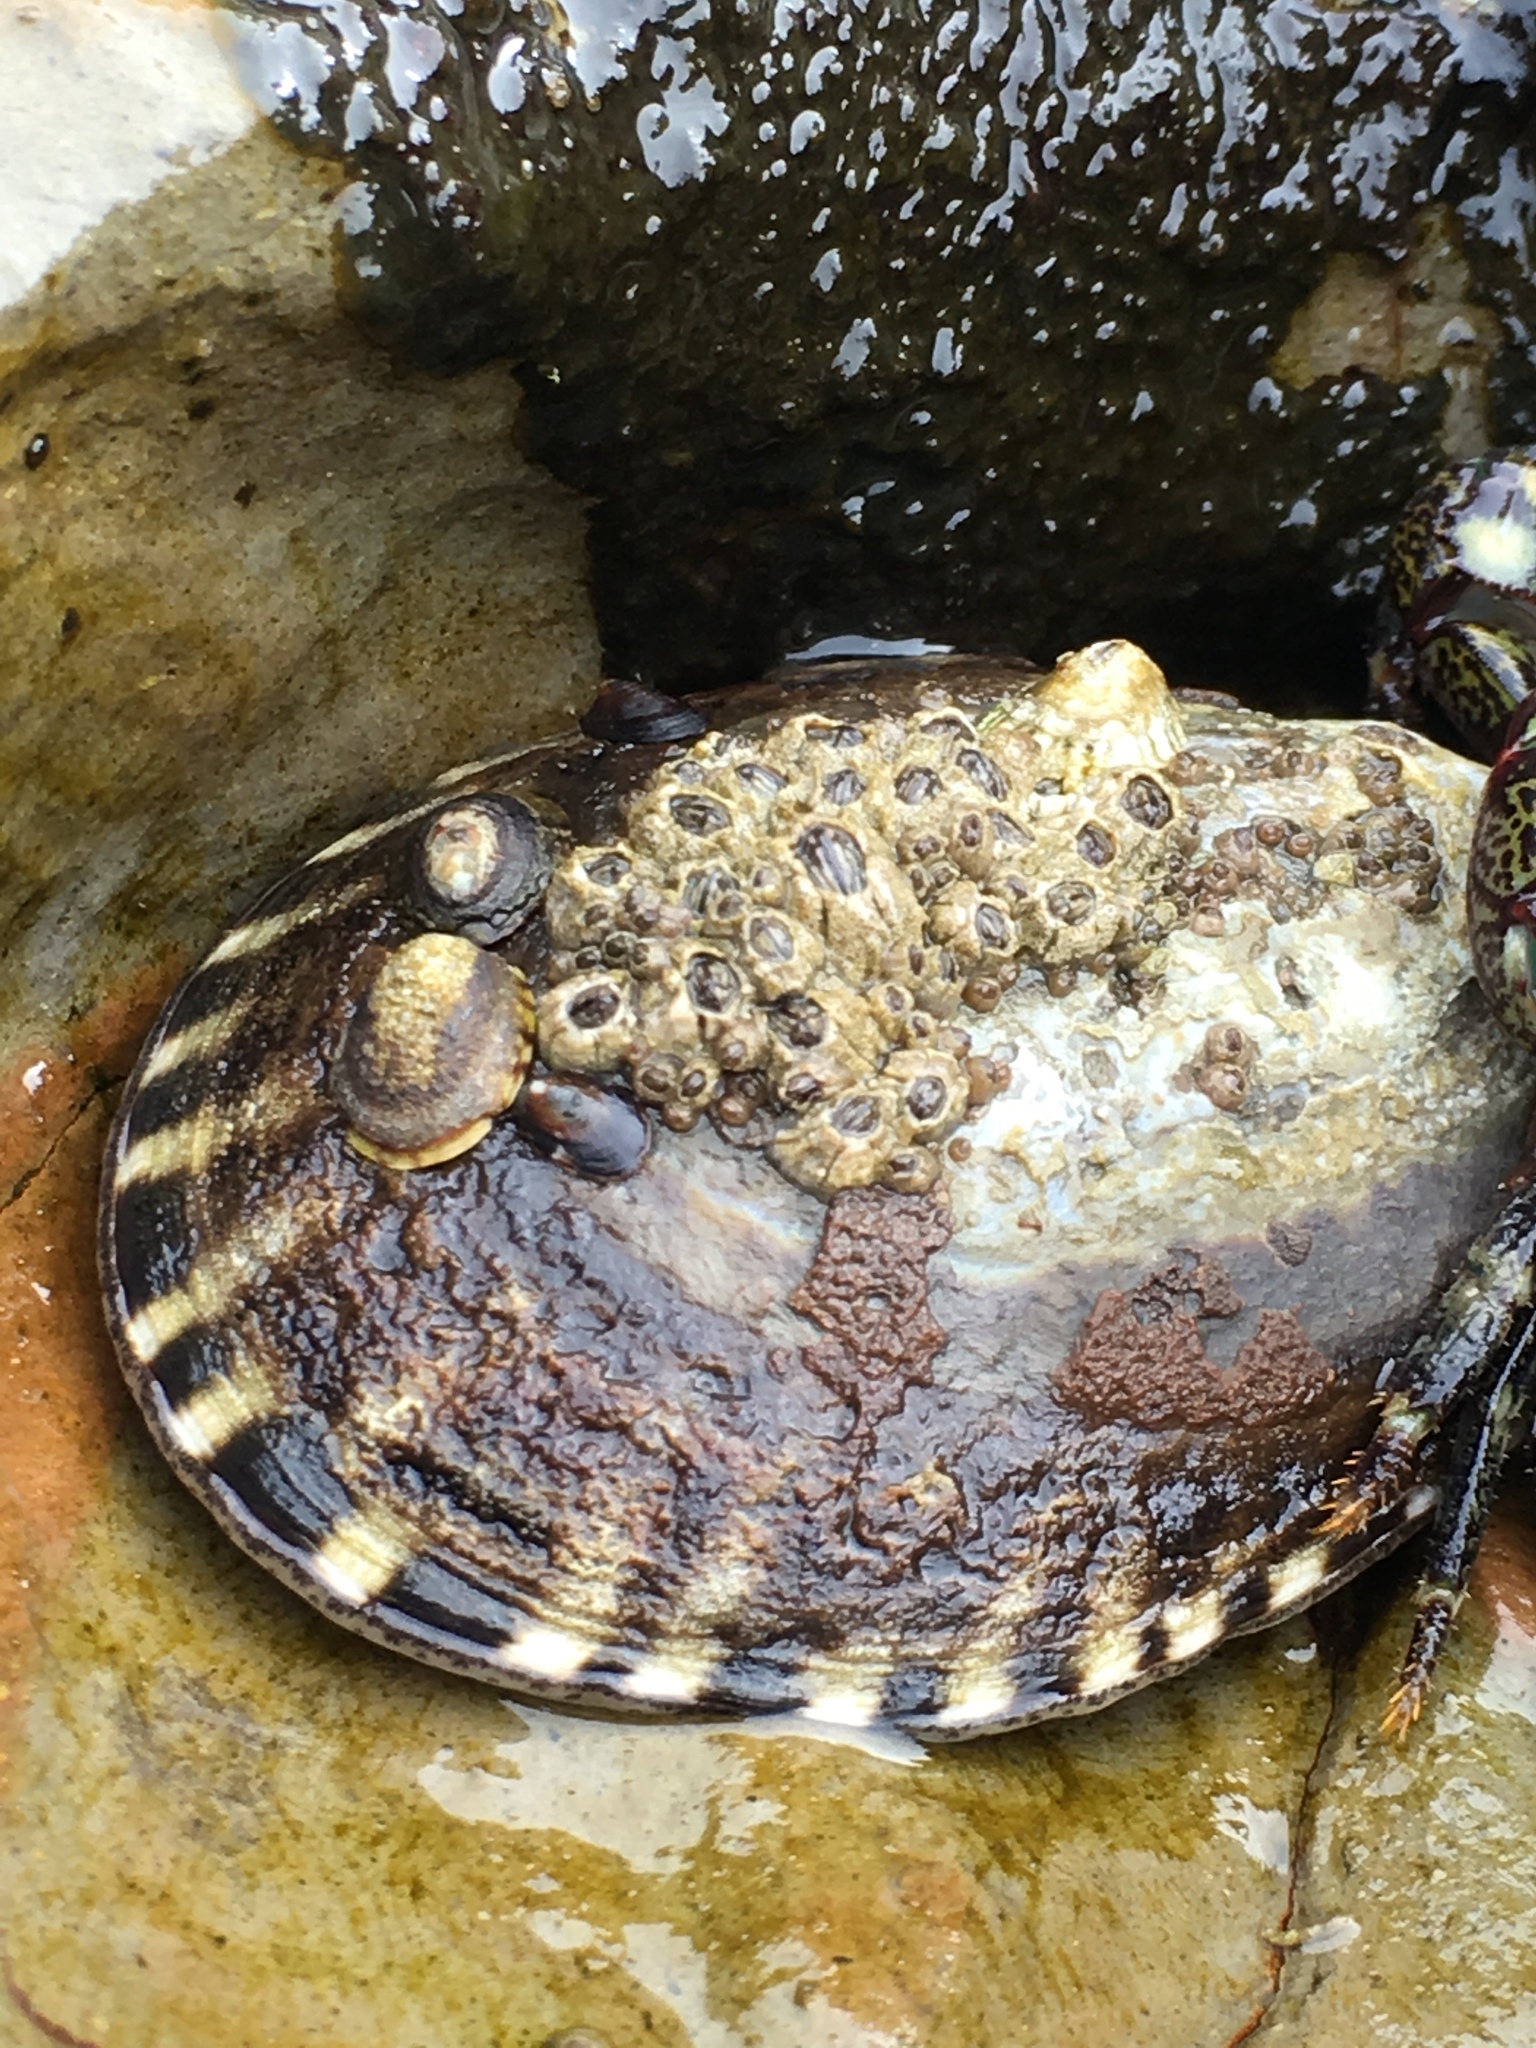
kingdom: Animalia
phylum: Mollusca
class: Gastropoda
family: Lottiidae
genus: Lottia
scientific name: Lottia gigantea
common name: Owl limpet
